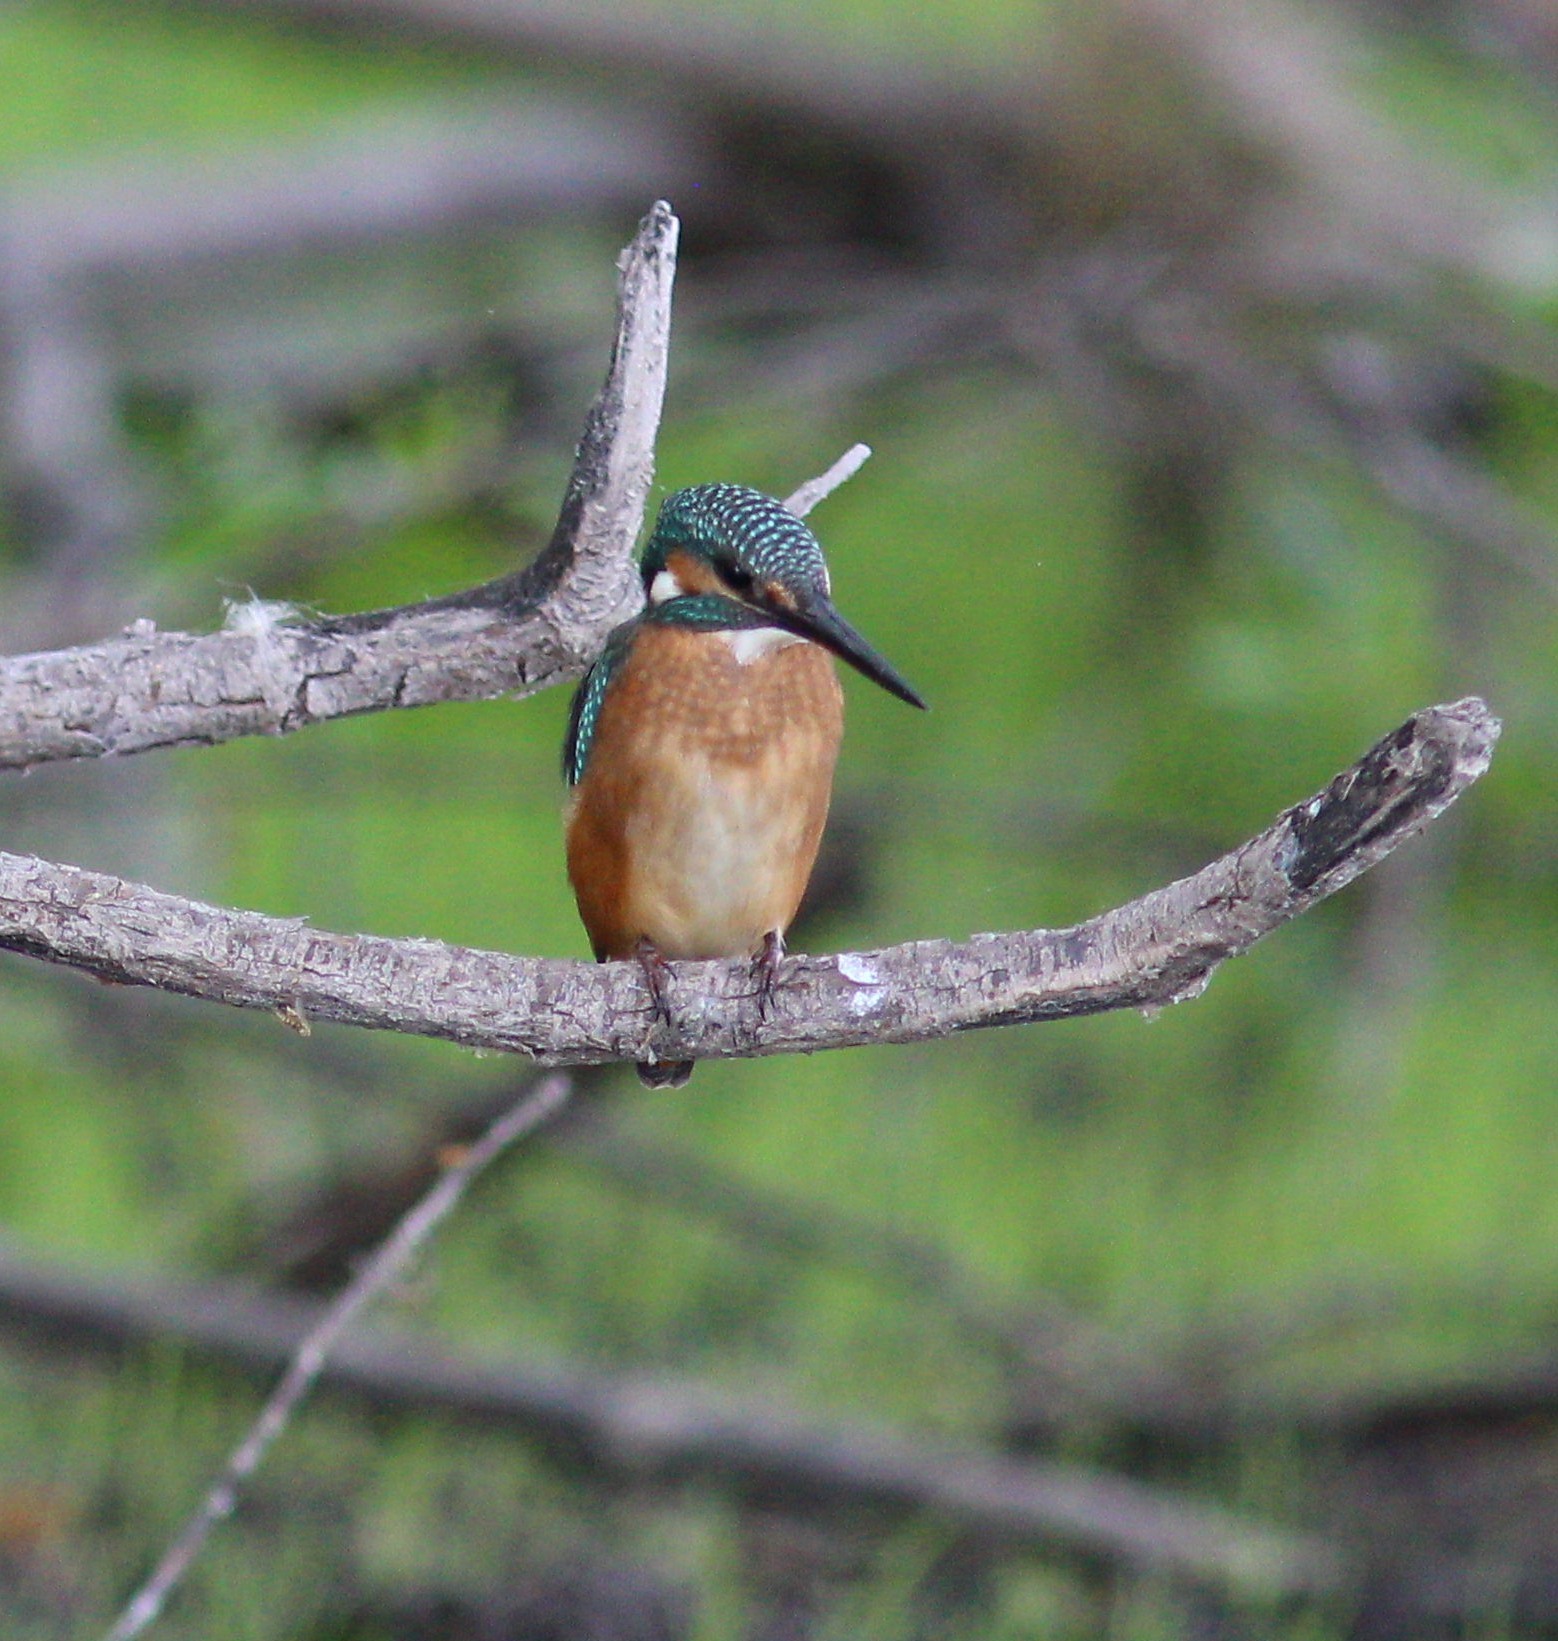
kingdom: Animalia
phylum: Chordata
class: Aves
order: Coraciiformes
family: Alcedinidae
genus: Alcedo
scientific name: Alcedo atthis
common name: Common kingfisher
